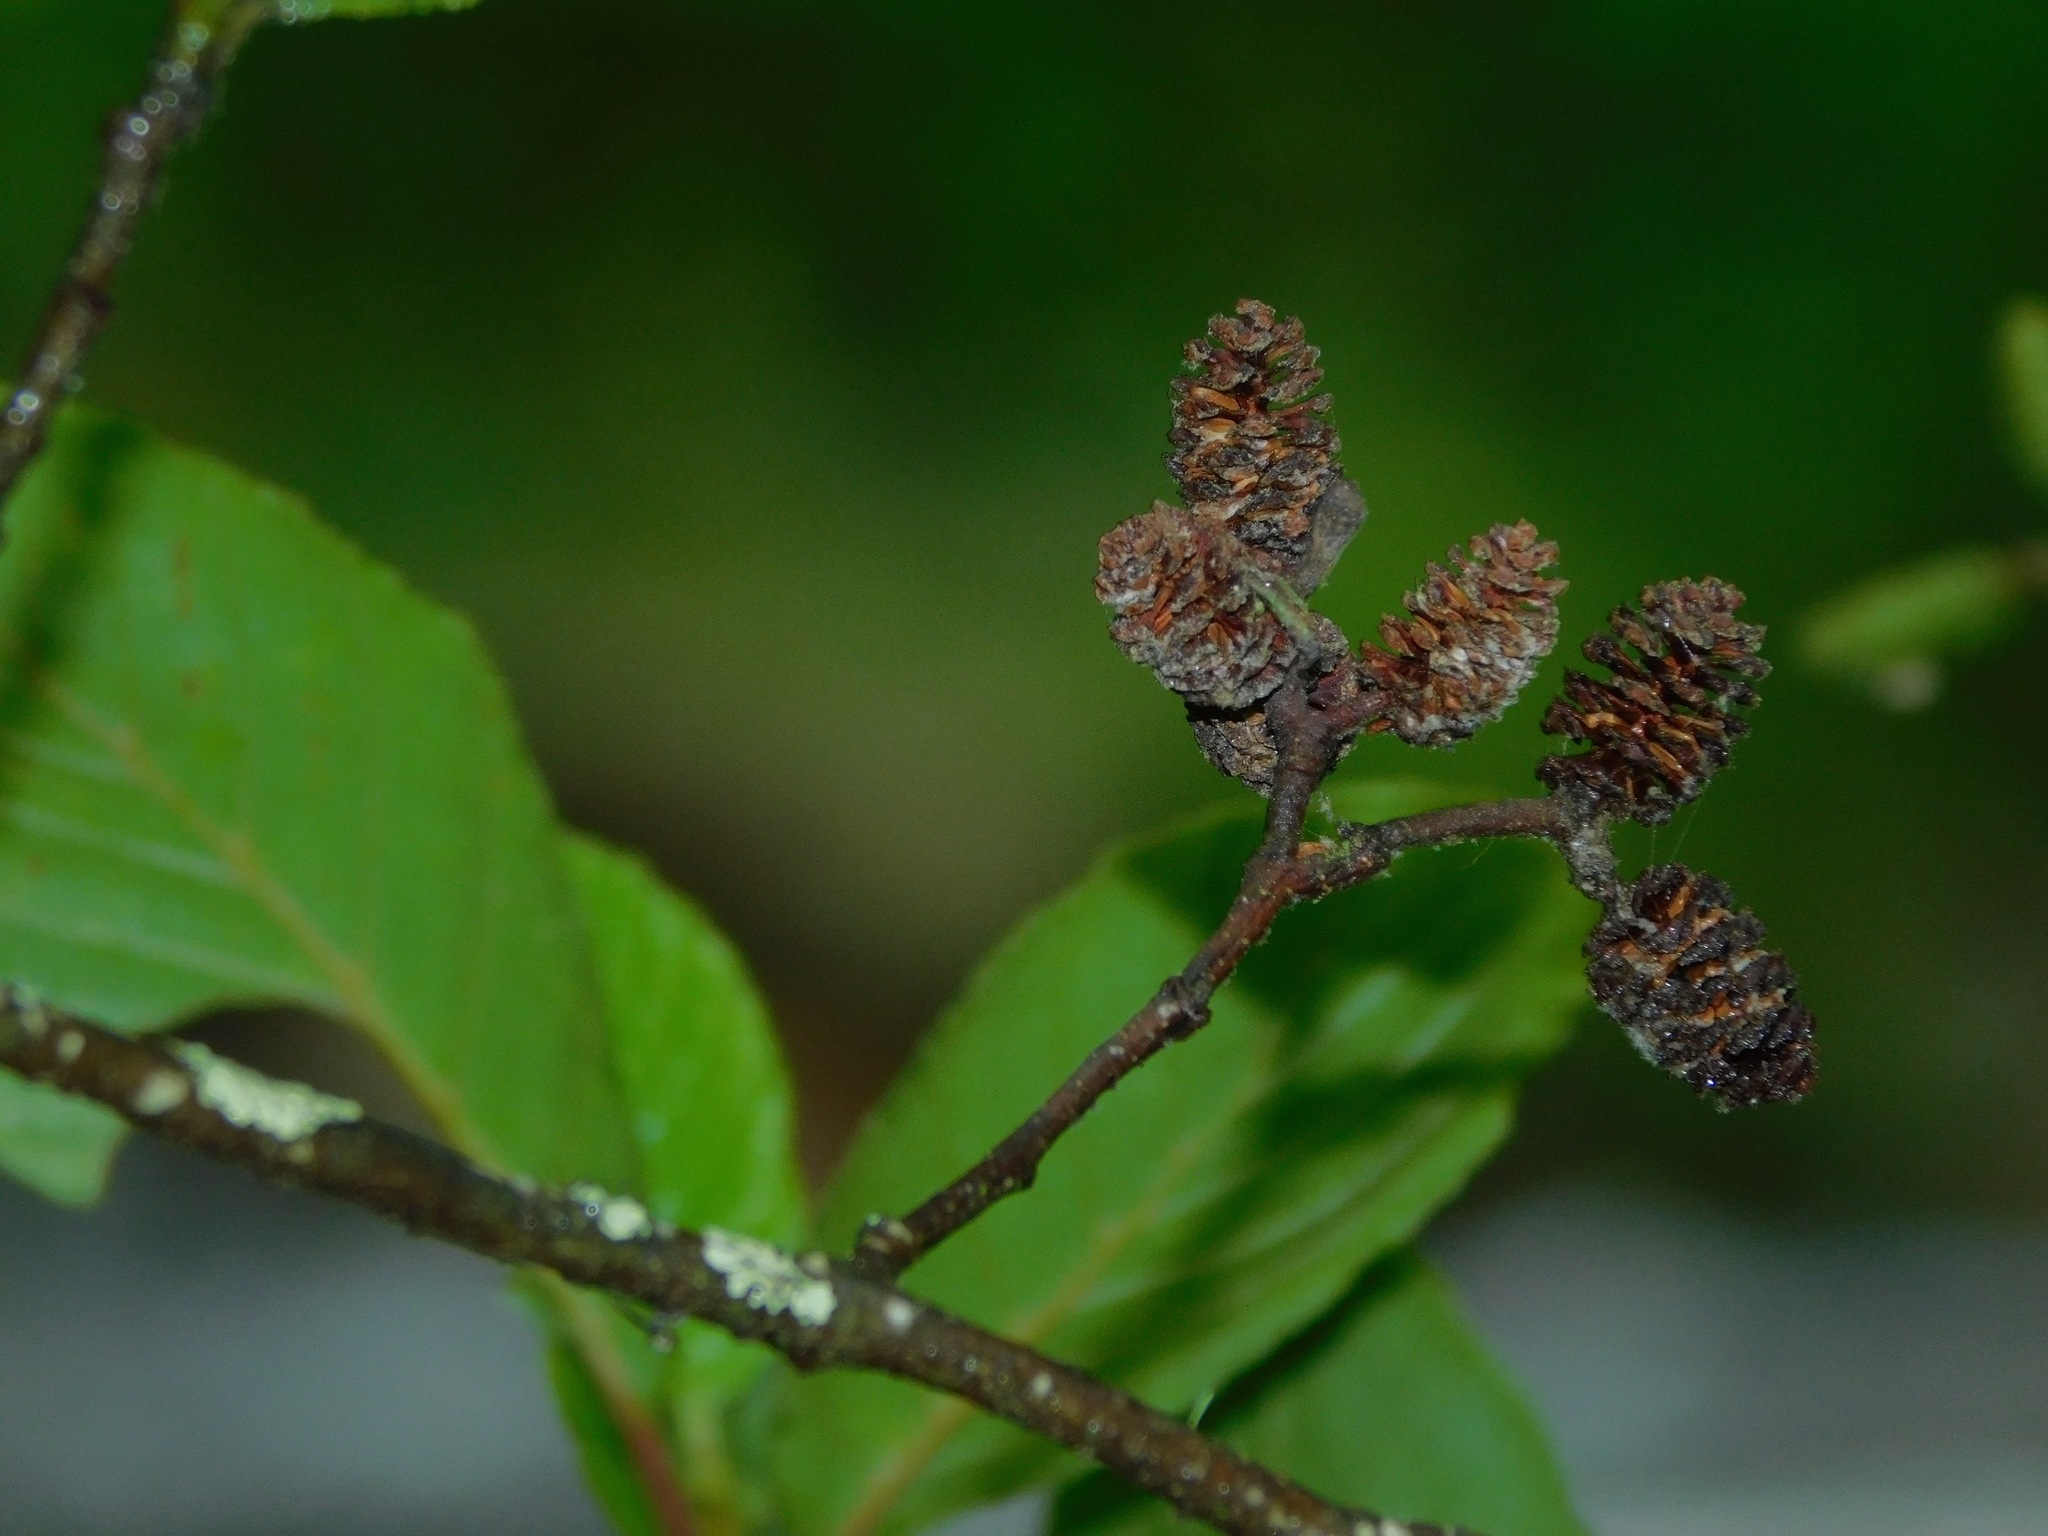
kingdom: Plantae
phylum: Tracheophyta
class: Magnoliopsida
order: Fagales
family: Betulaceae
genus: Alnus
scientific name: Alnus serrulata
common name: Hazel alder
